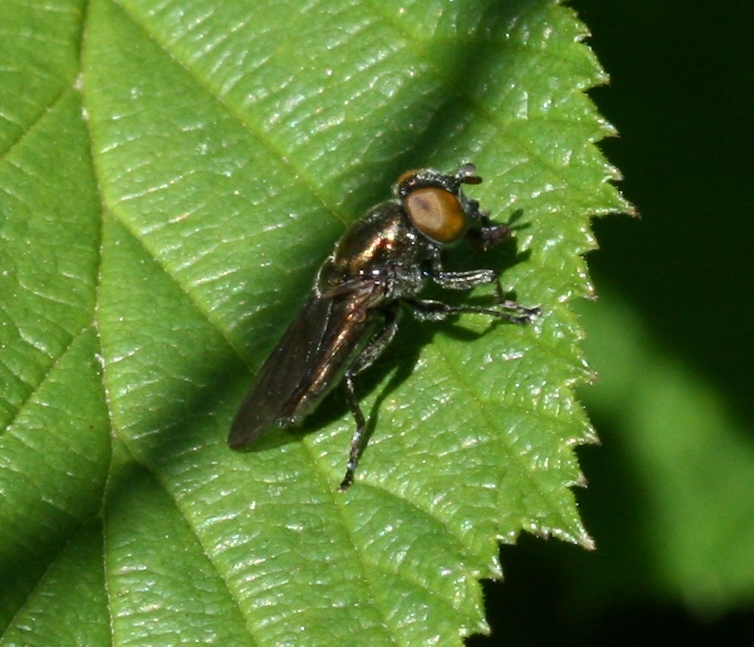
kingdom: Animalia
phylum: Arthropoda
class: Insecta
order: Diptera
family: Syrphidae
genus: Orthonevra
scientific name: Orthonevra splendens
